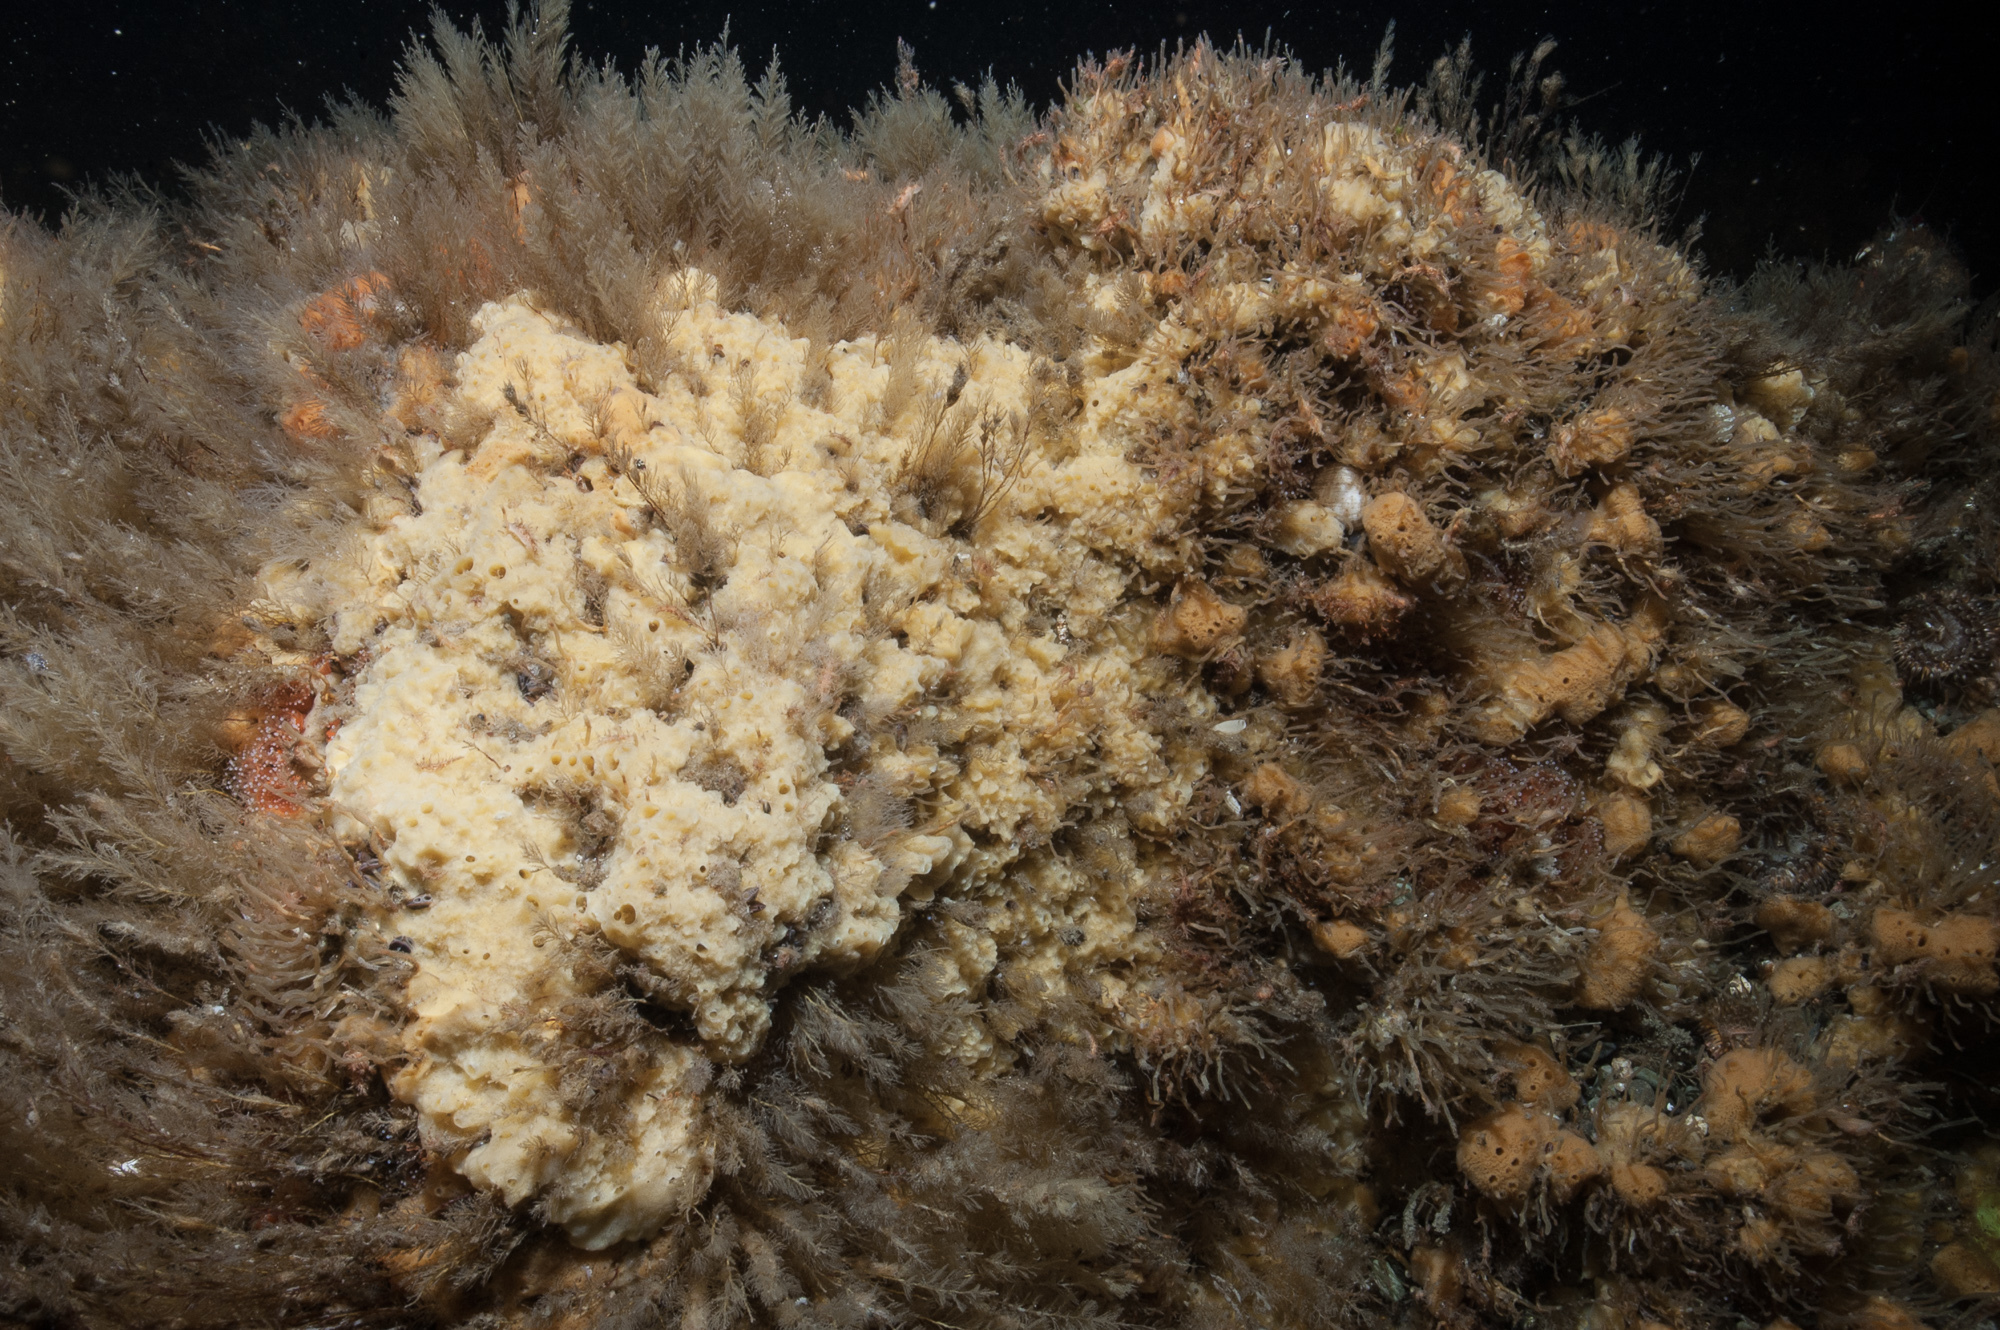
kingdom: Animalia
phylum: Porifera
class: Demospongiae
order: Suberitida
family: Halichondriidae
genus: Halichondria
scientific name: Halichondria panicea
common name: Breadcrumb sponge
